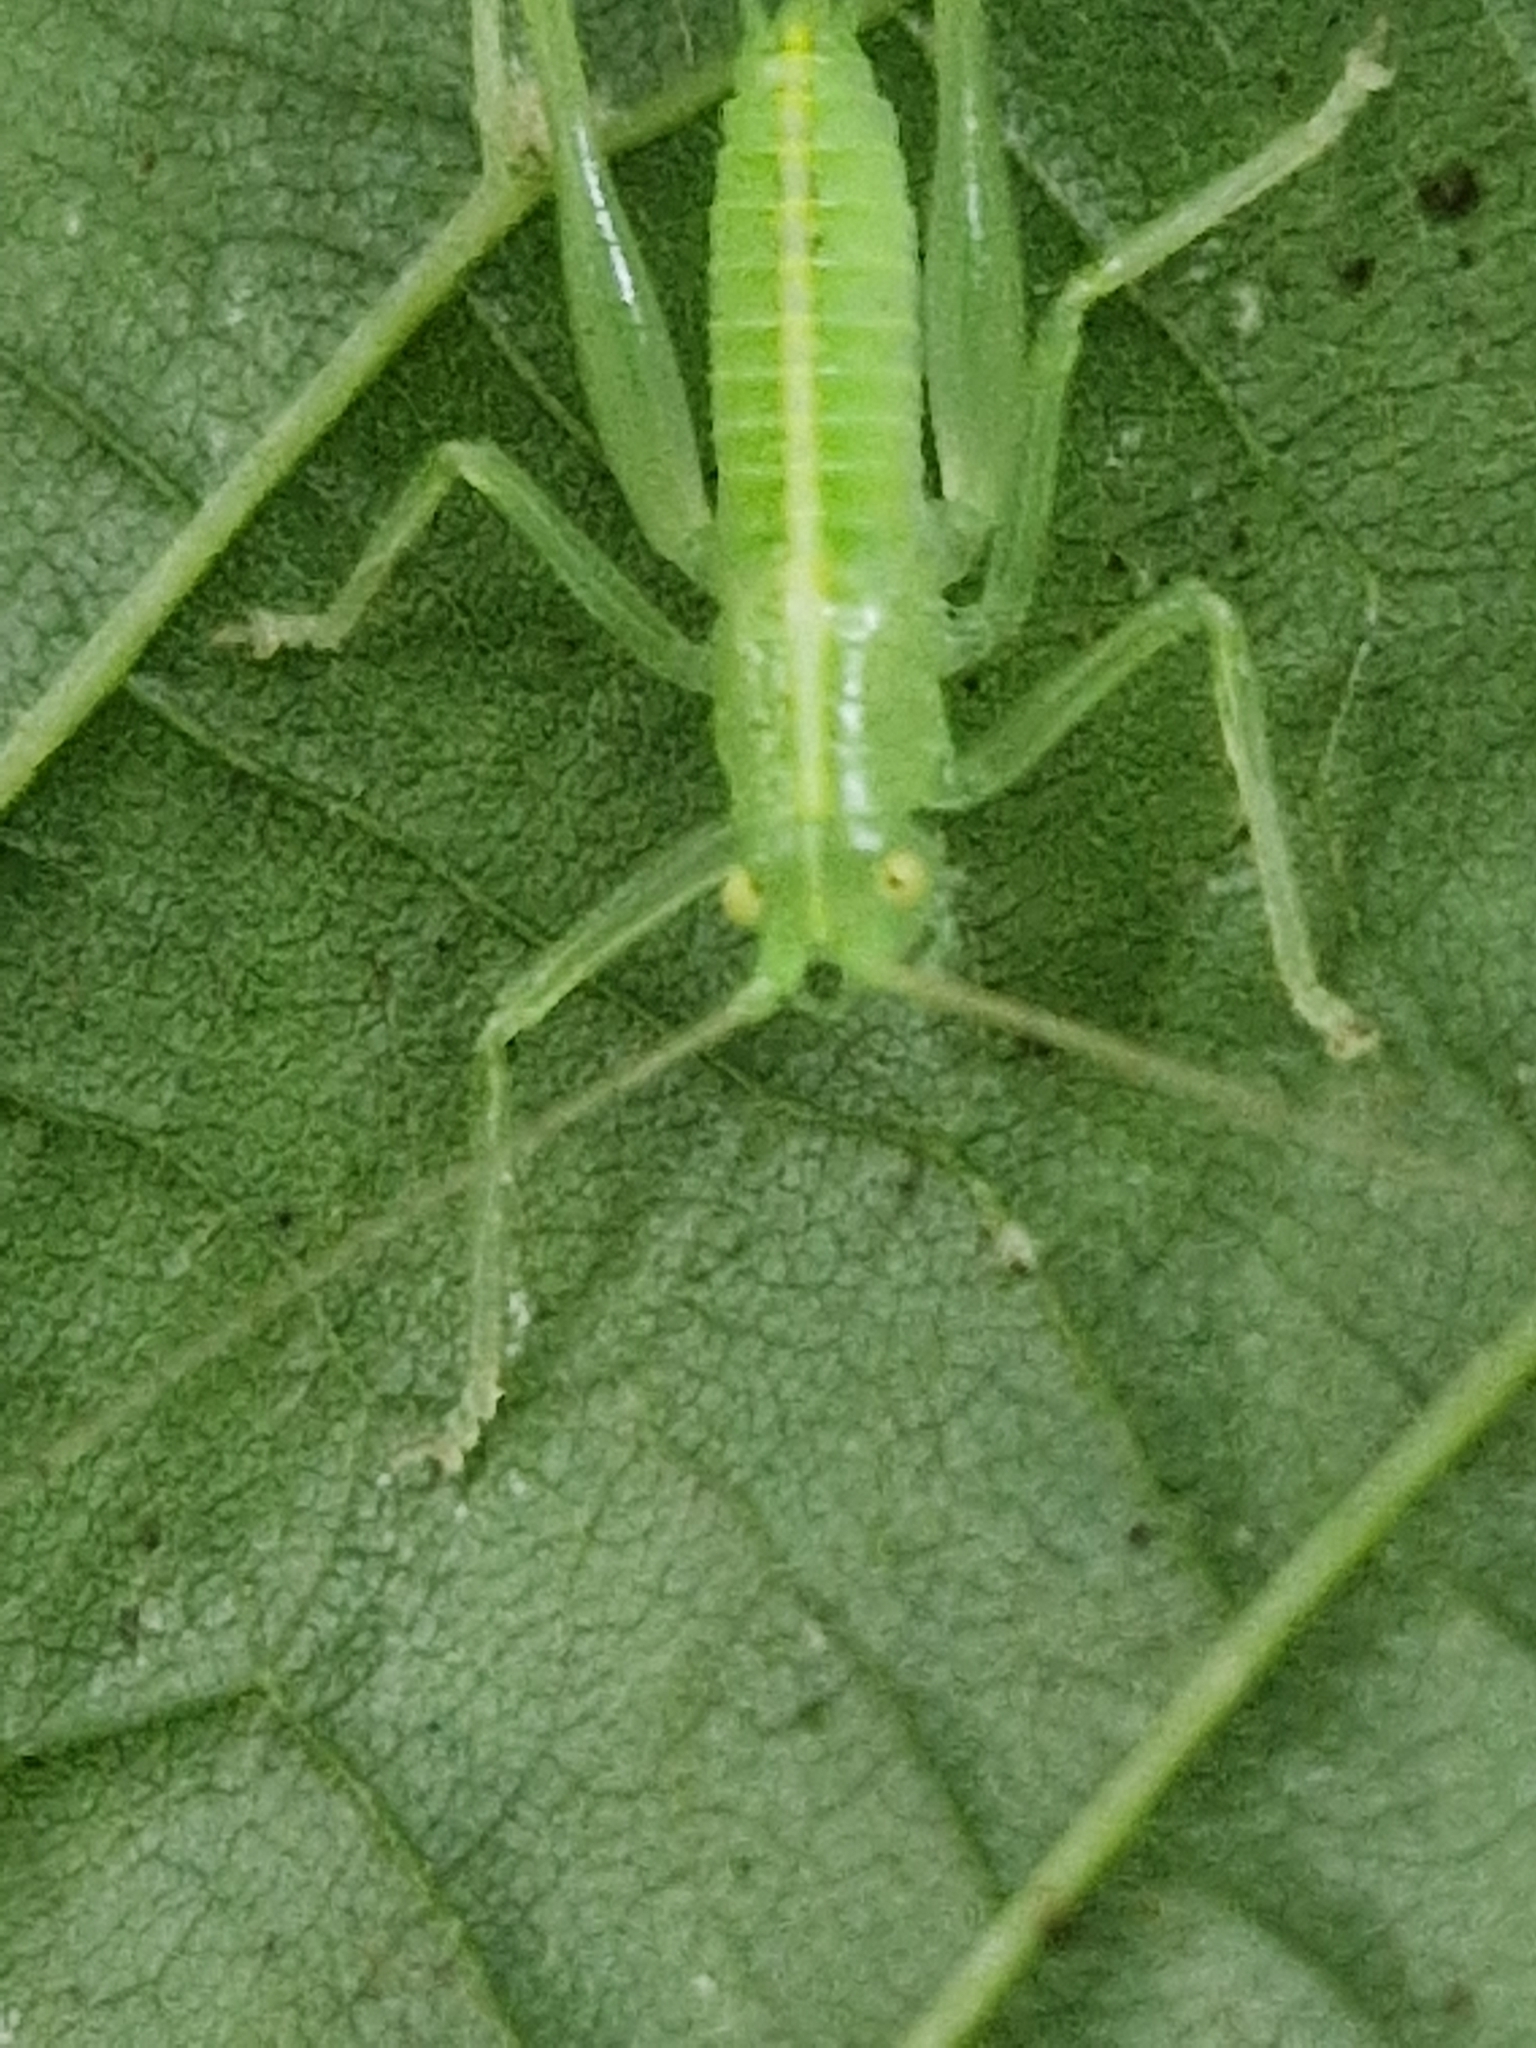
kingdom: Animalia
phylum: Arthropoda
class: Insecta
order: Orthoptera
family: Tettigoniidae
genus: Meconema
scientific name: Meconema meridionale
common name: Southern oak bush-cricket
